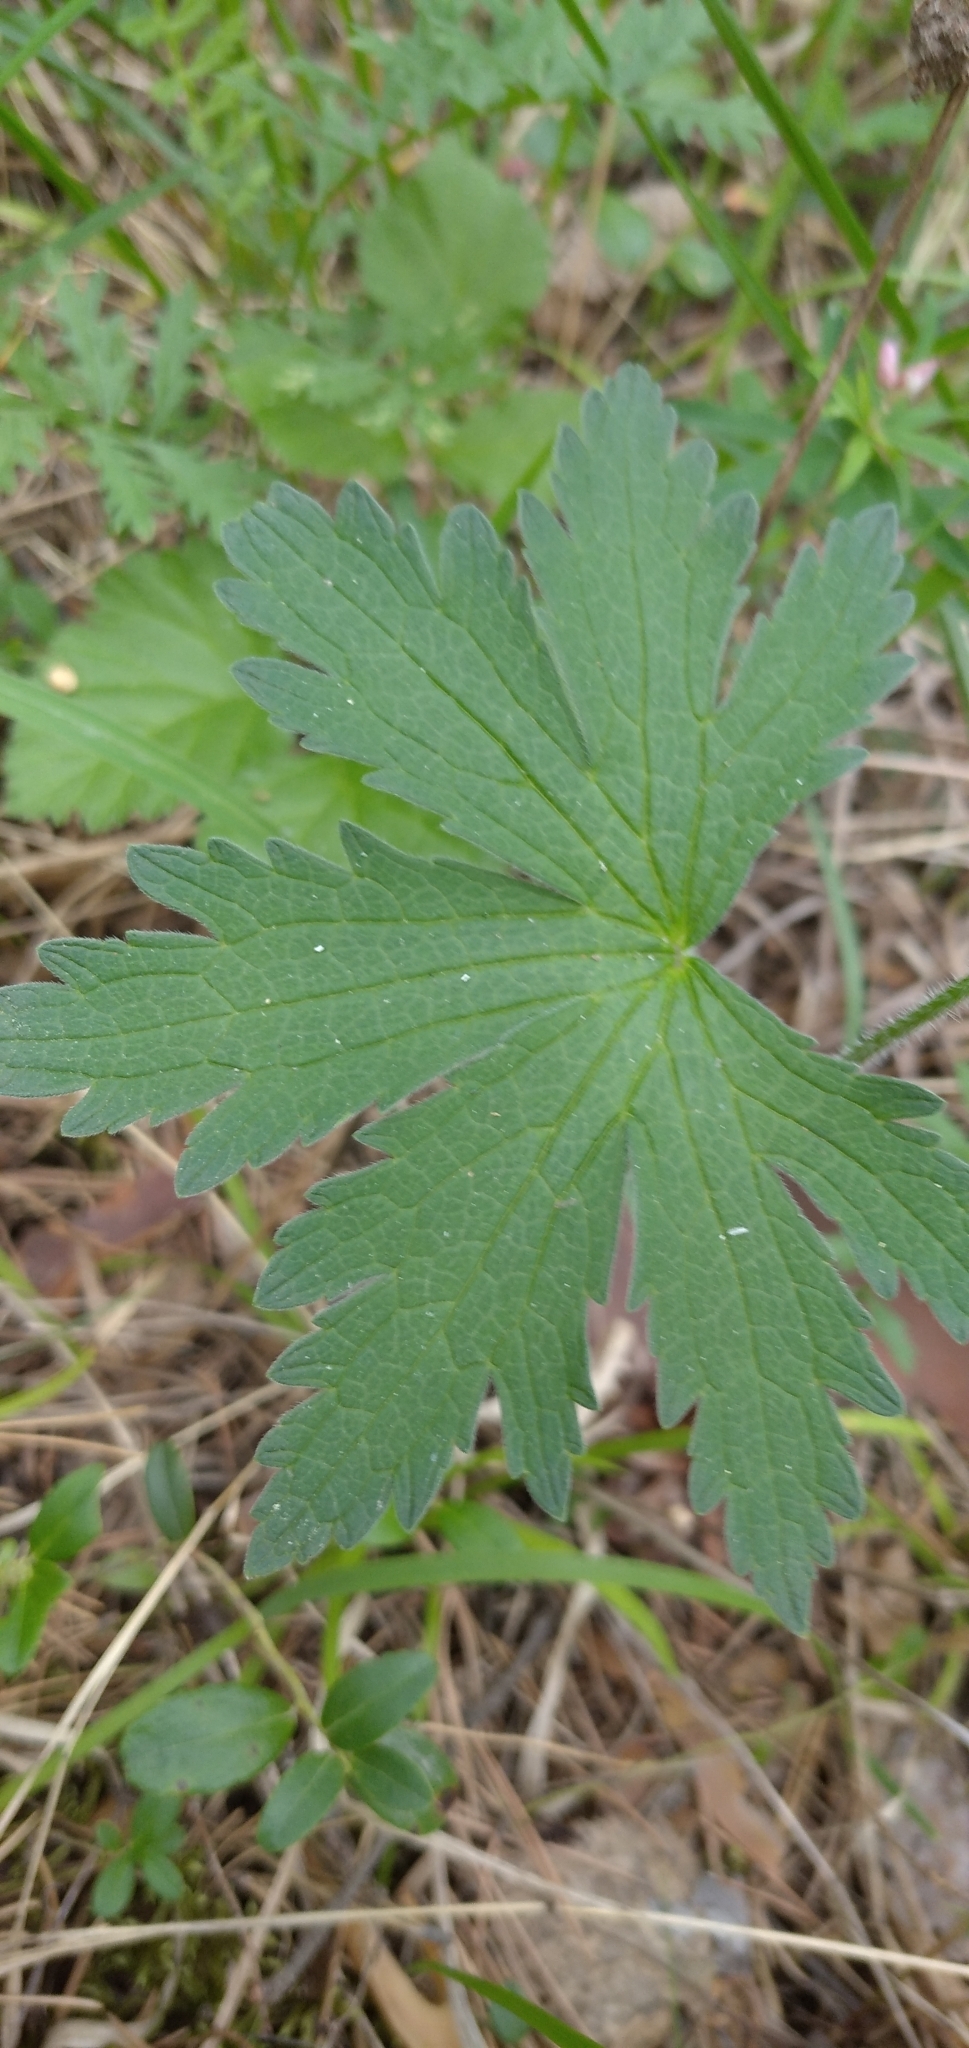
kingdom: Plantae
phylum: Tracheophyta
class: Magnoliopsida
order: Geraniales
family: Geraniaceae
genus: Geranium
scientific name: Geranium sylvaticum
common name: Wood crane's-bill
